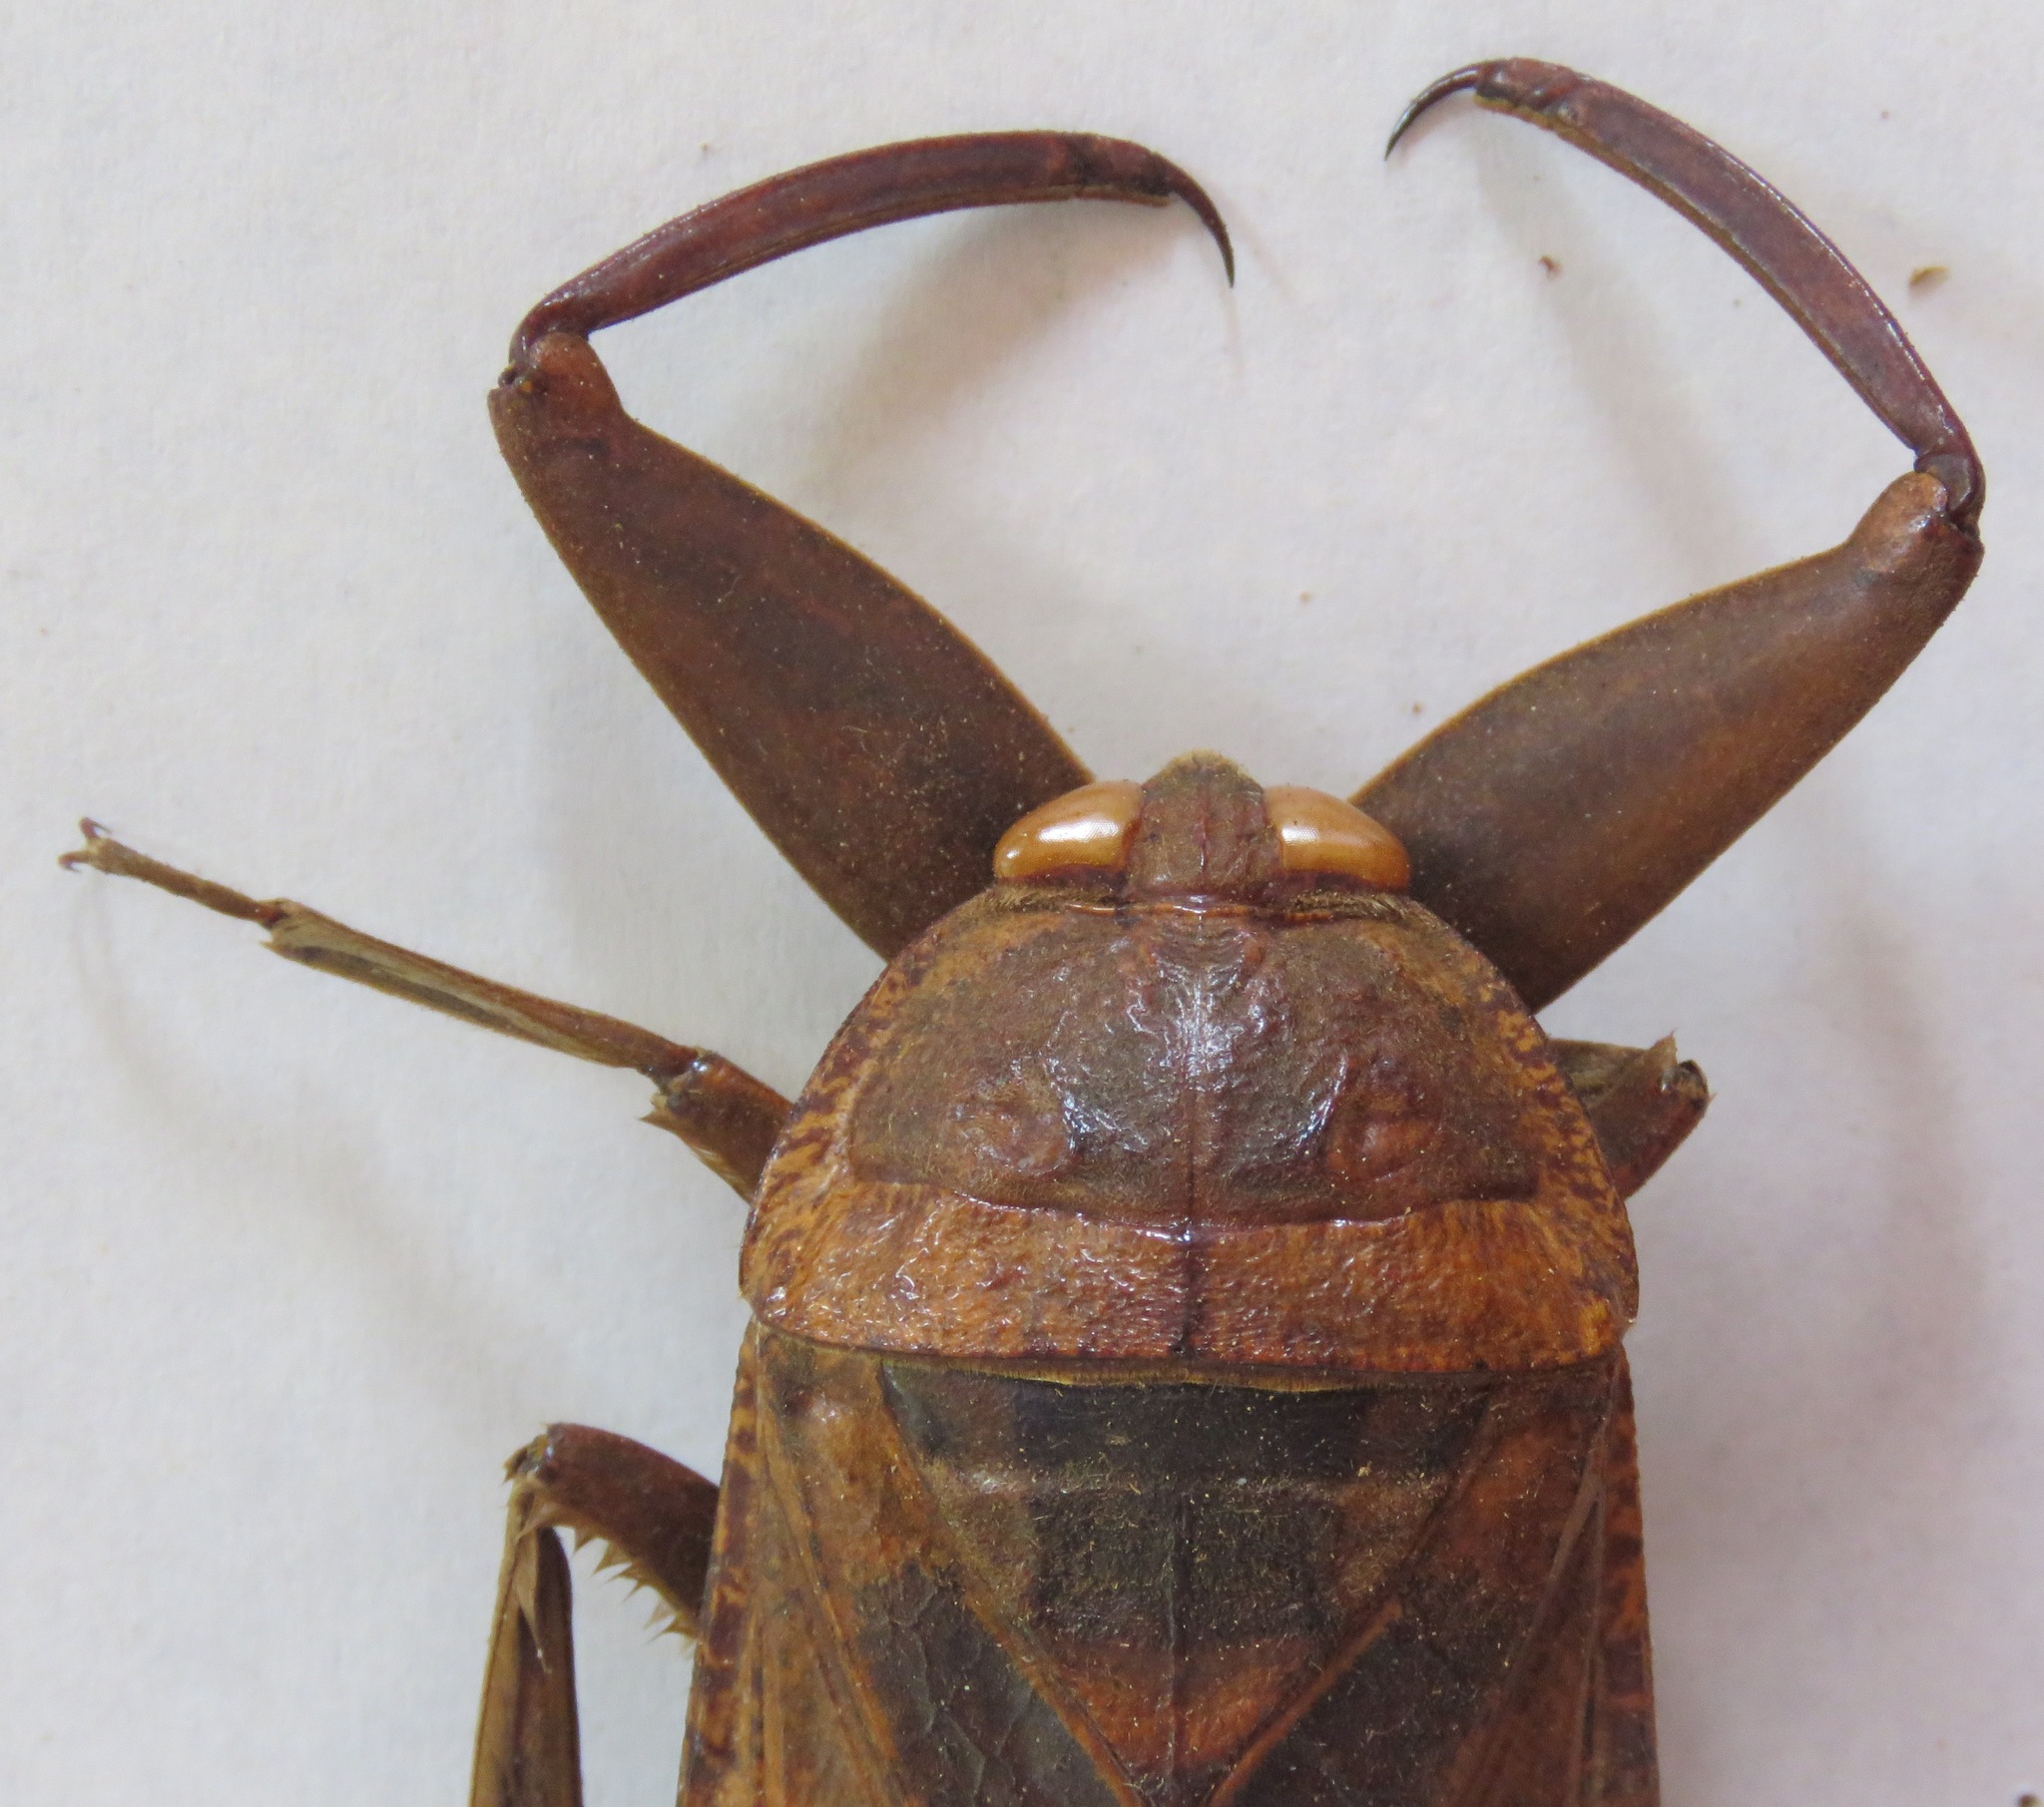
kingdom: Animalia
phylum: Arthropoda
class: Insecta
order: Hemiptera
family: Belostomatidae
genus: Lethocerus
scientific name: Lethocerus collossicus
